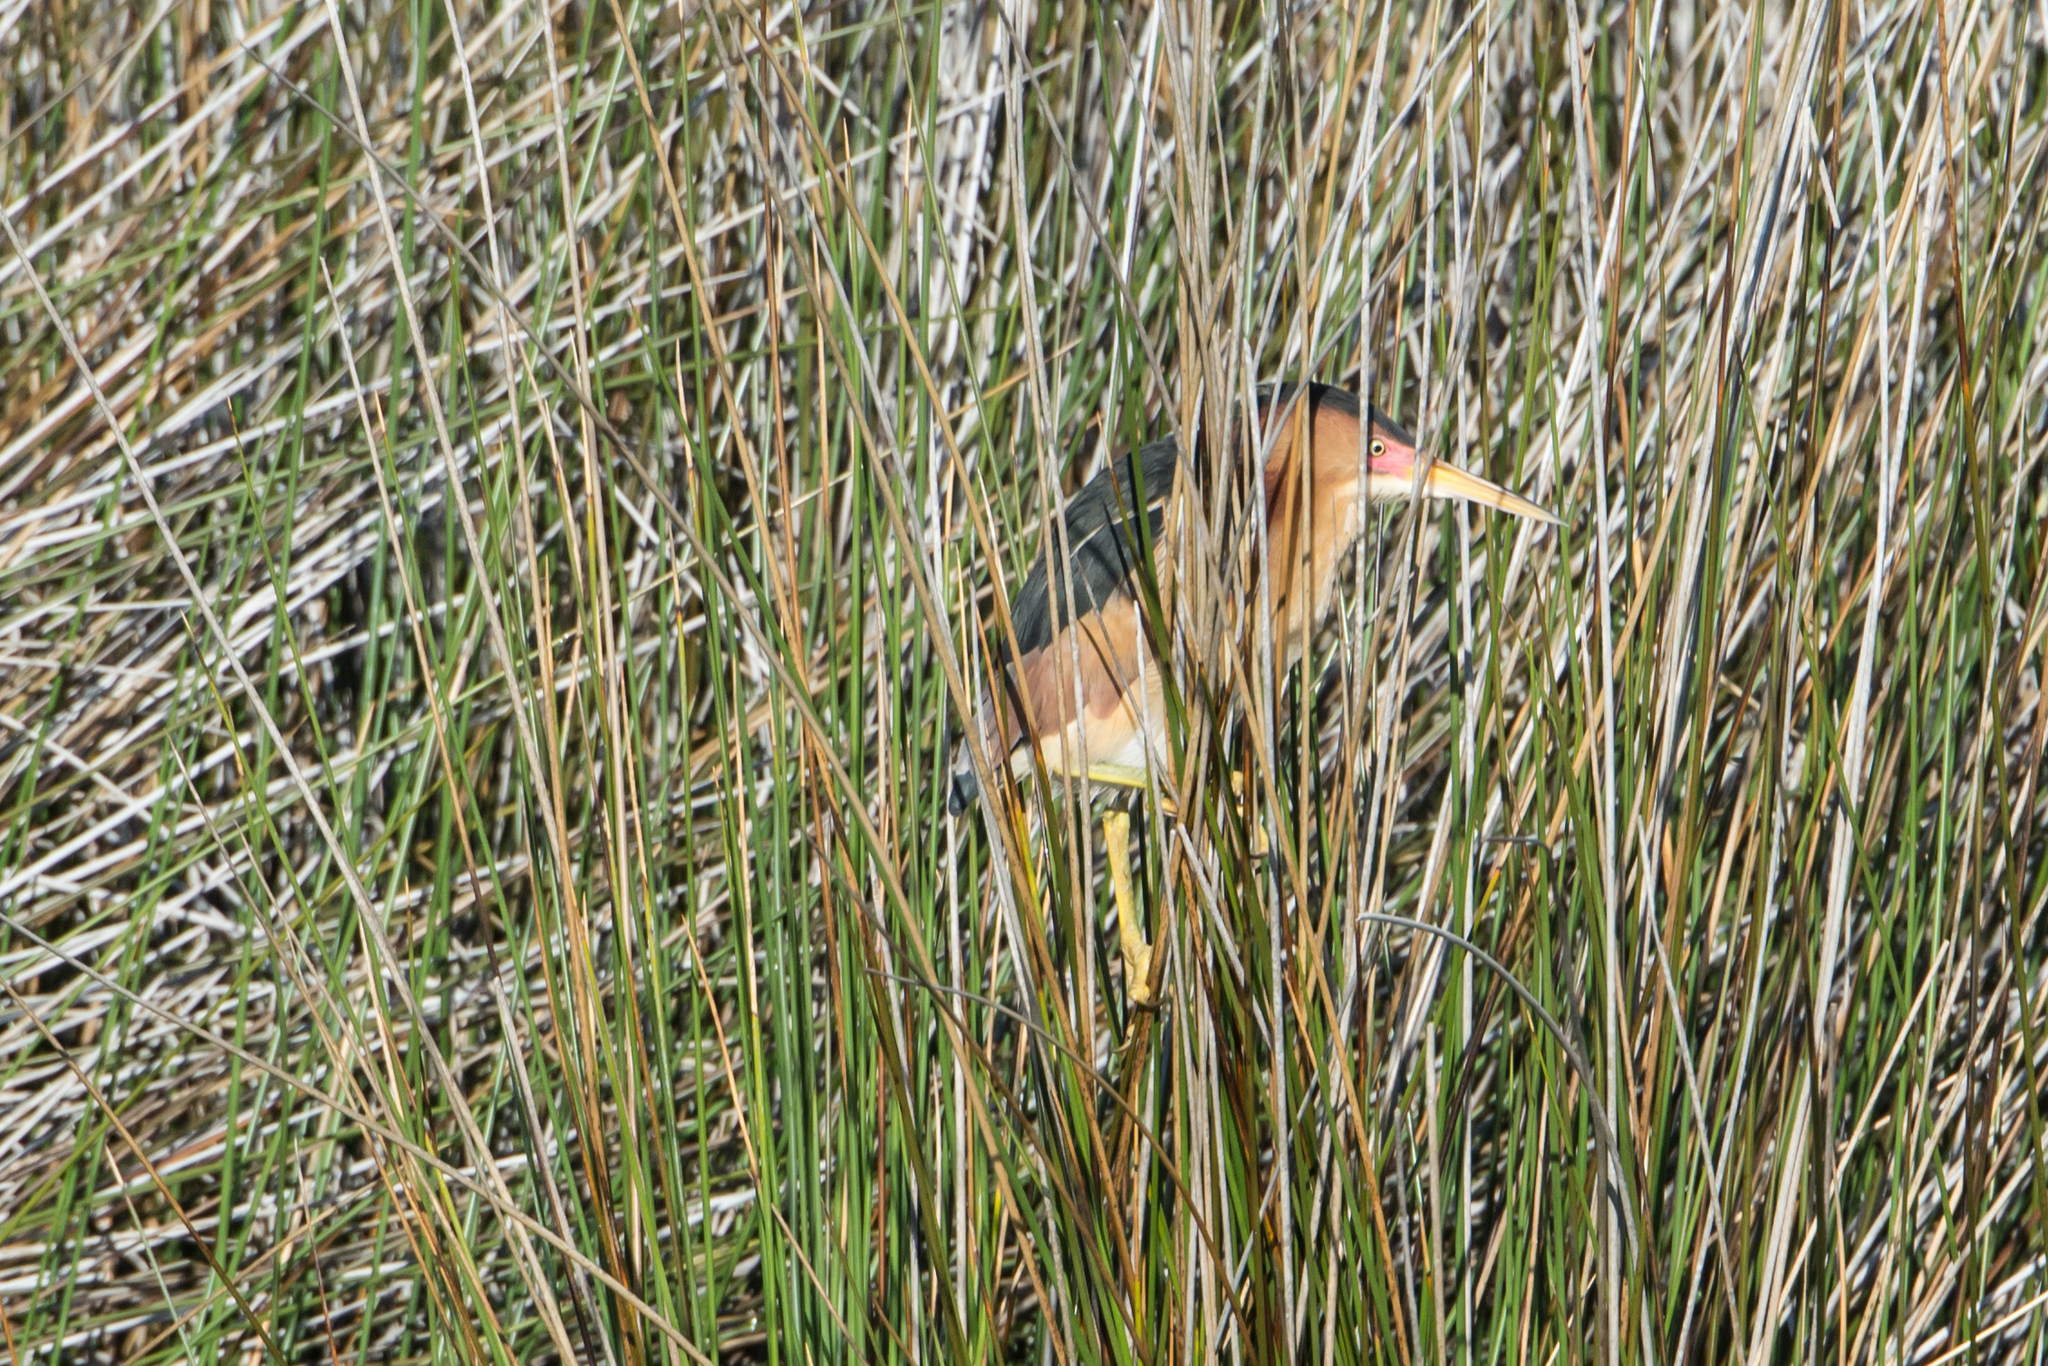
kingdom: Animalia
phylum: Chordata
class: Aves
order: Pelecaniformes
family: Ardeidae
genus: Ixobrychus
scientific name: Ixobrychus exilis
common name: Least bittern
